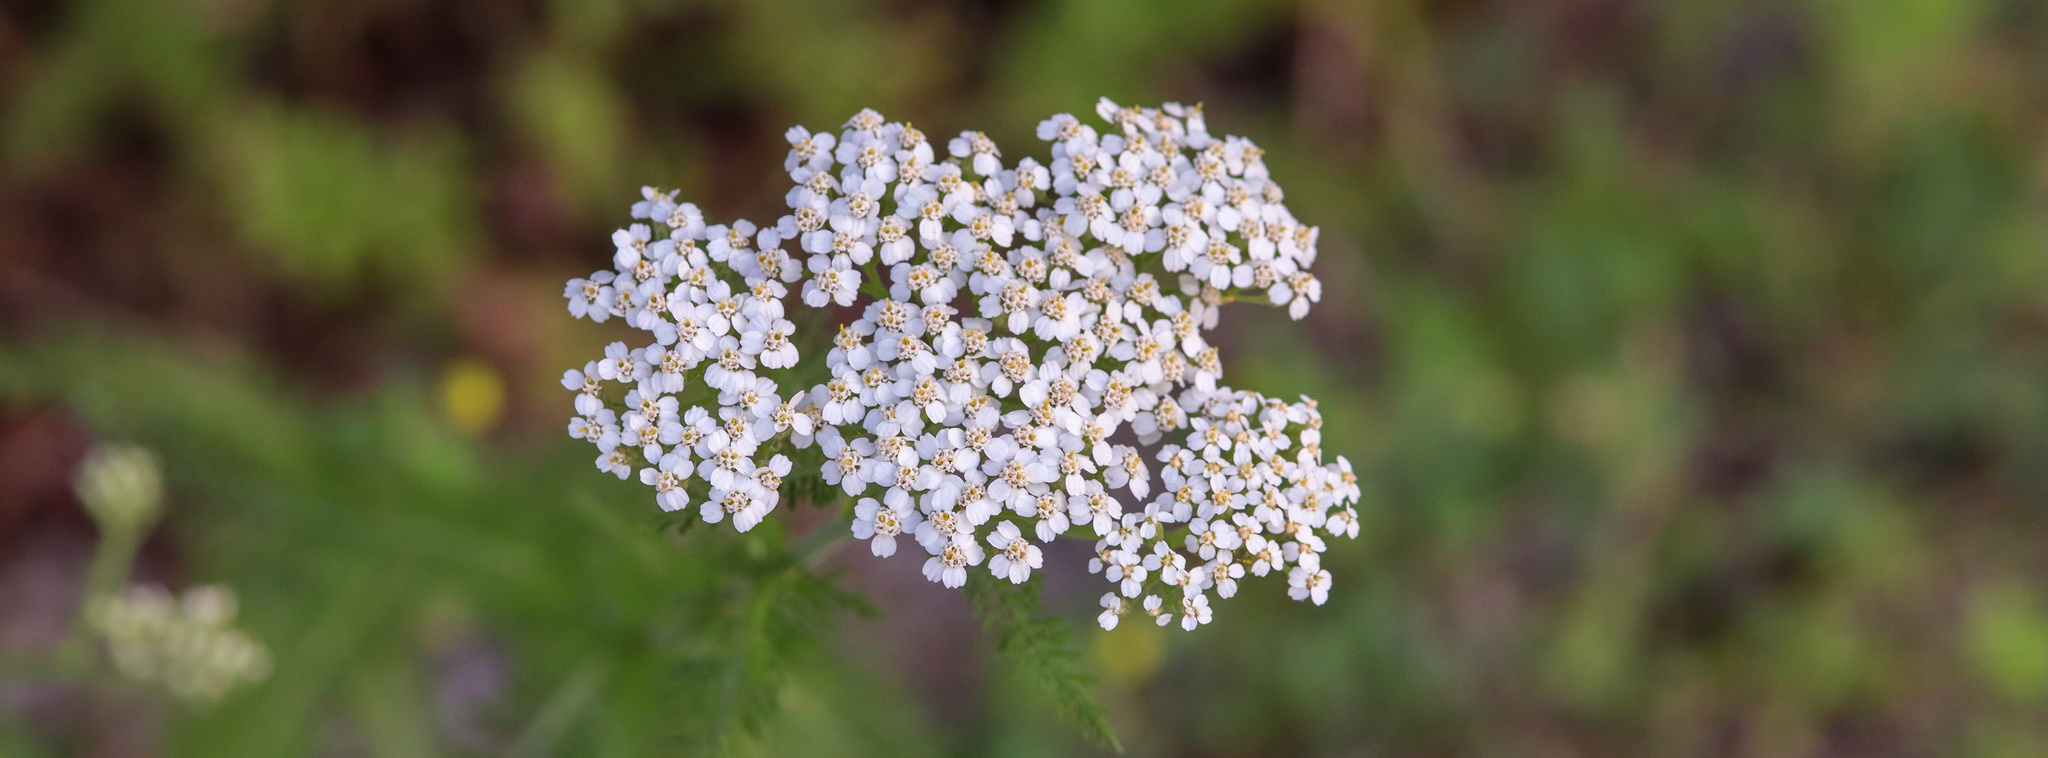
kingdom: Plantae
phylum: Tracheophyta
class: Magnoliopsida
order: Asterales
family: Asteraceae
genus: Achillea
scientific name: Achillea millefolium
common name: Yarrow
